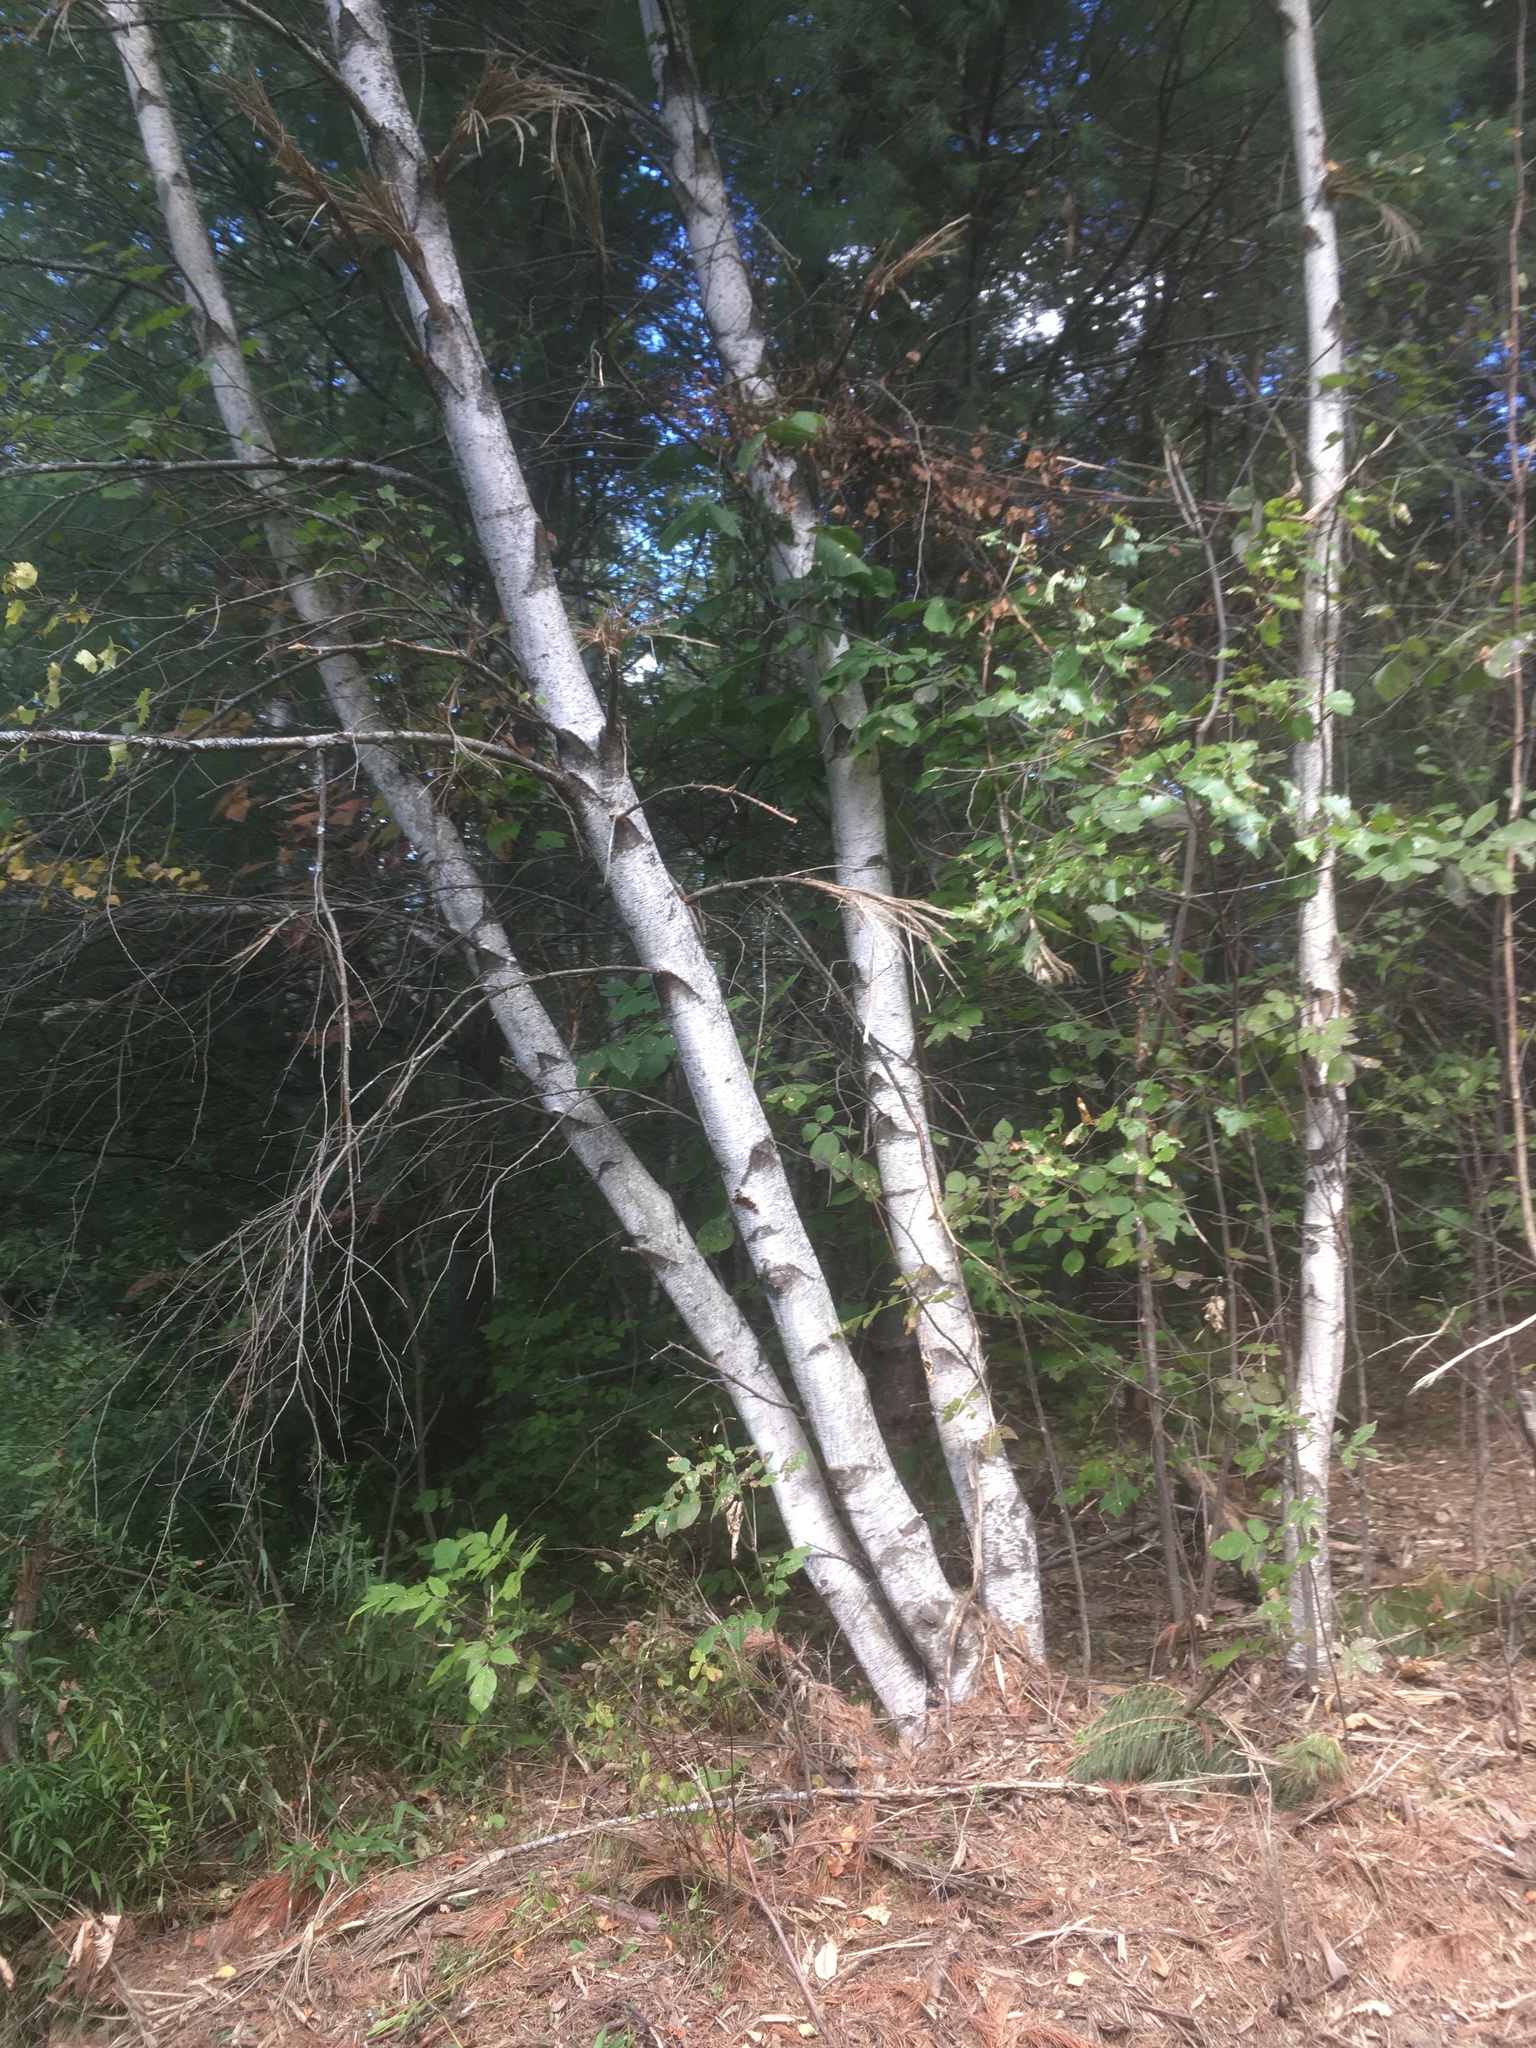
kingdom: Plantae
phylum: Tracheophyta
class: Magnoliopsida
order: Fagales
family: Betulaceae
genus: Betula
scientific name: Betula populifolia
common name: Fire birch
